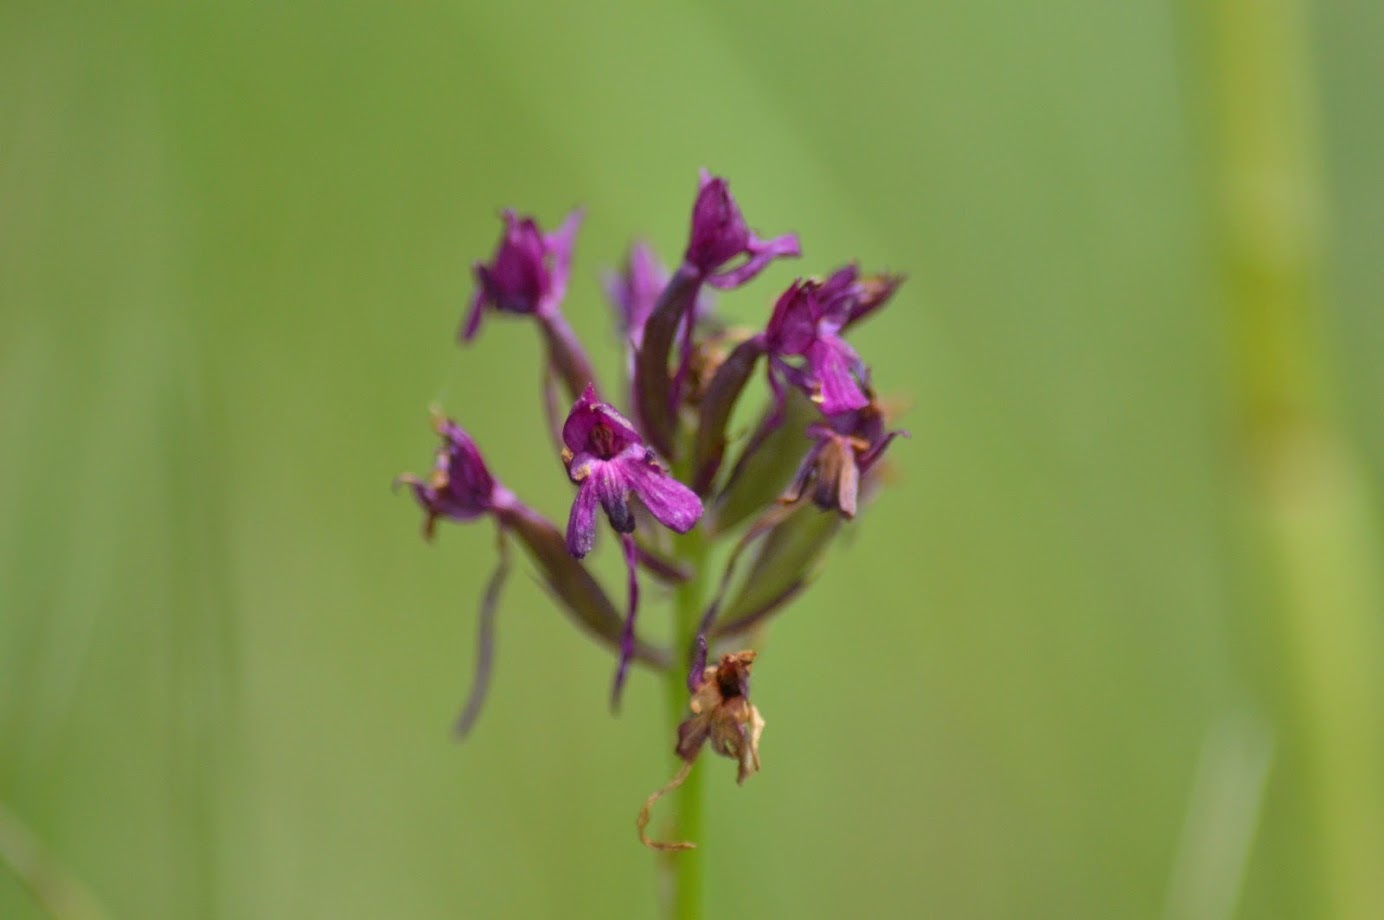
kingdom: Plantae
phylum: Tracheophyta
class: Liliopsida
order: Asparagales
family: Orchidaceae
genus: Anacamptis
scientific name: Anacamptis pyramidalis
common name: Pyramidal orchid
